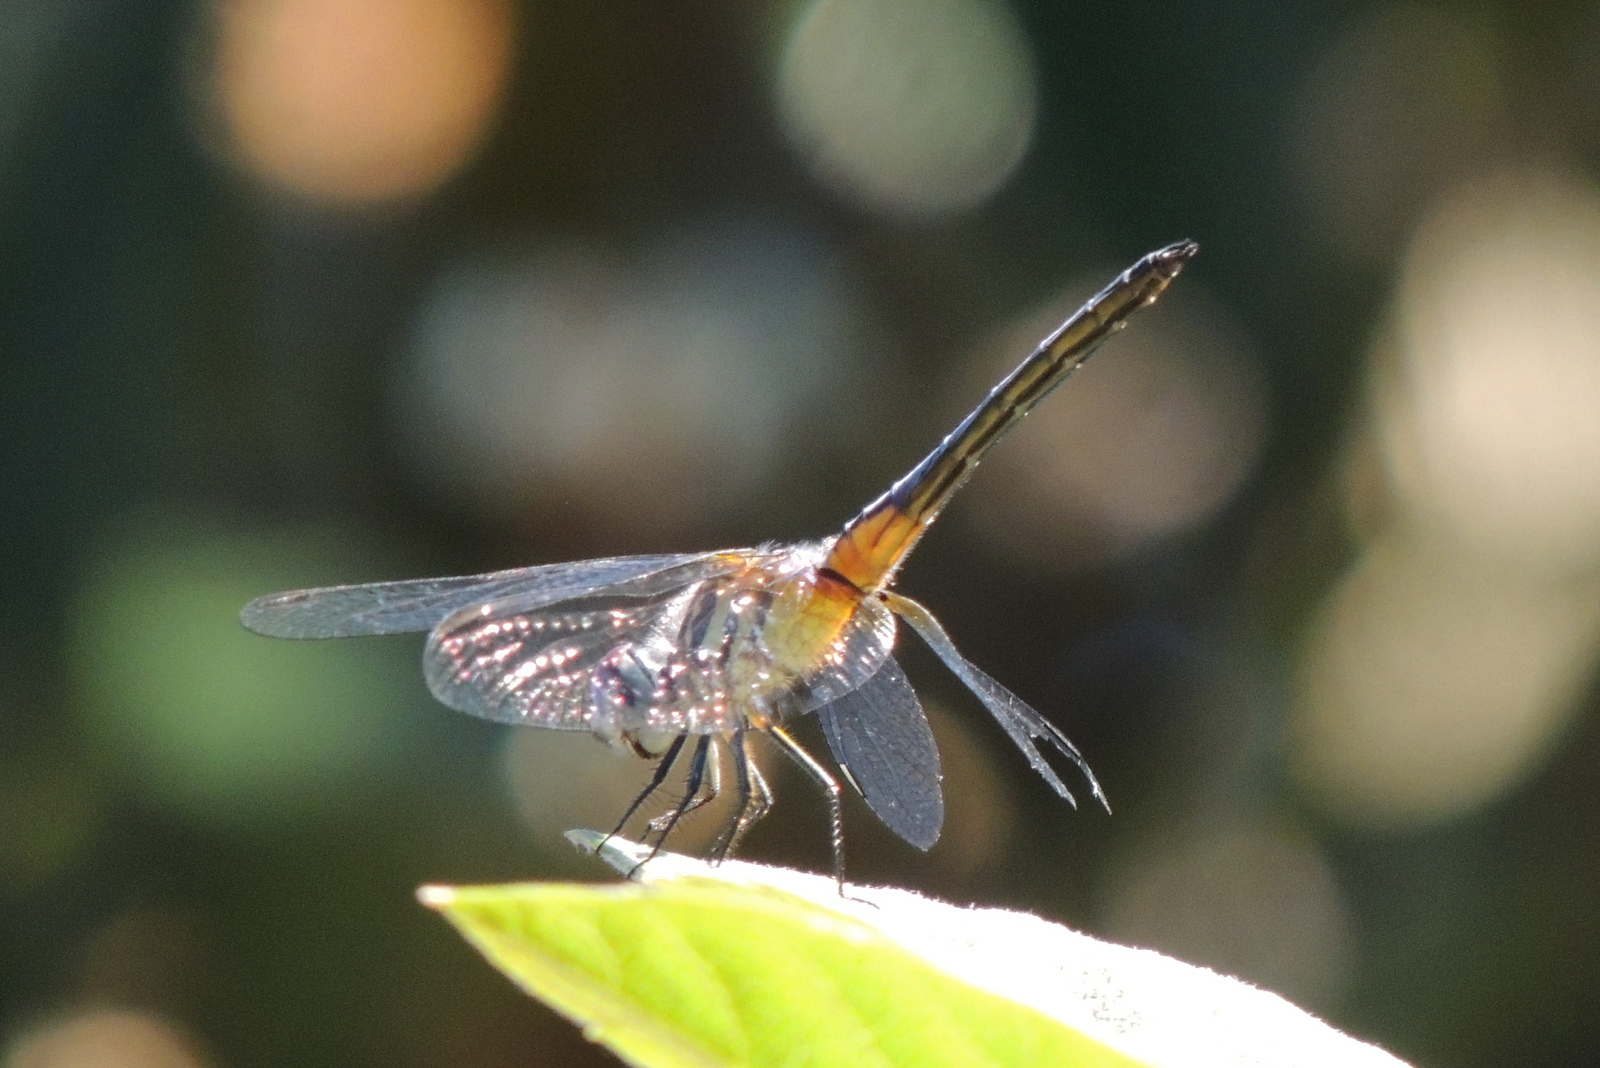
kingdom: Animalia
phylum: Arthropoda
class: Insecta
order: Odonata
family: Libellulidae
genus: Pachydiplax
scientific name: Pachydiplax longipennis
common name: Blue dasher
